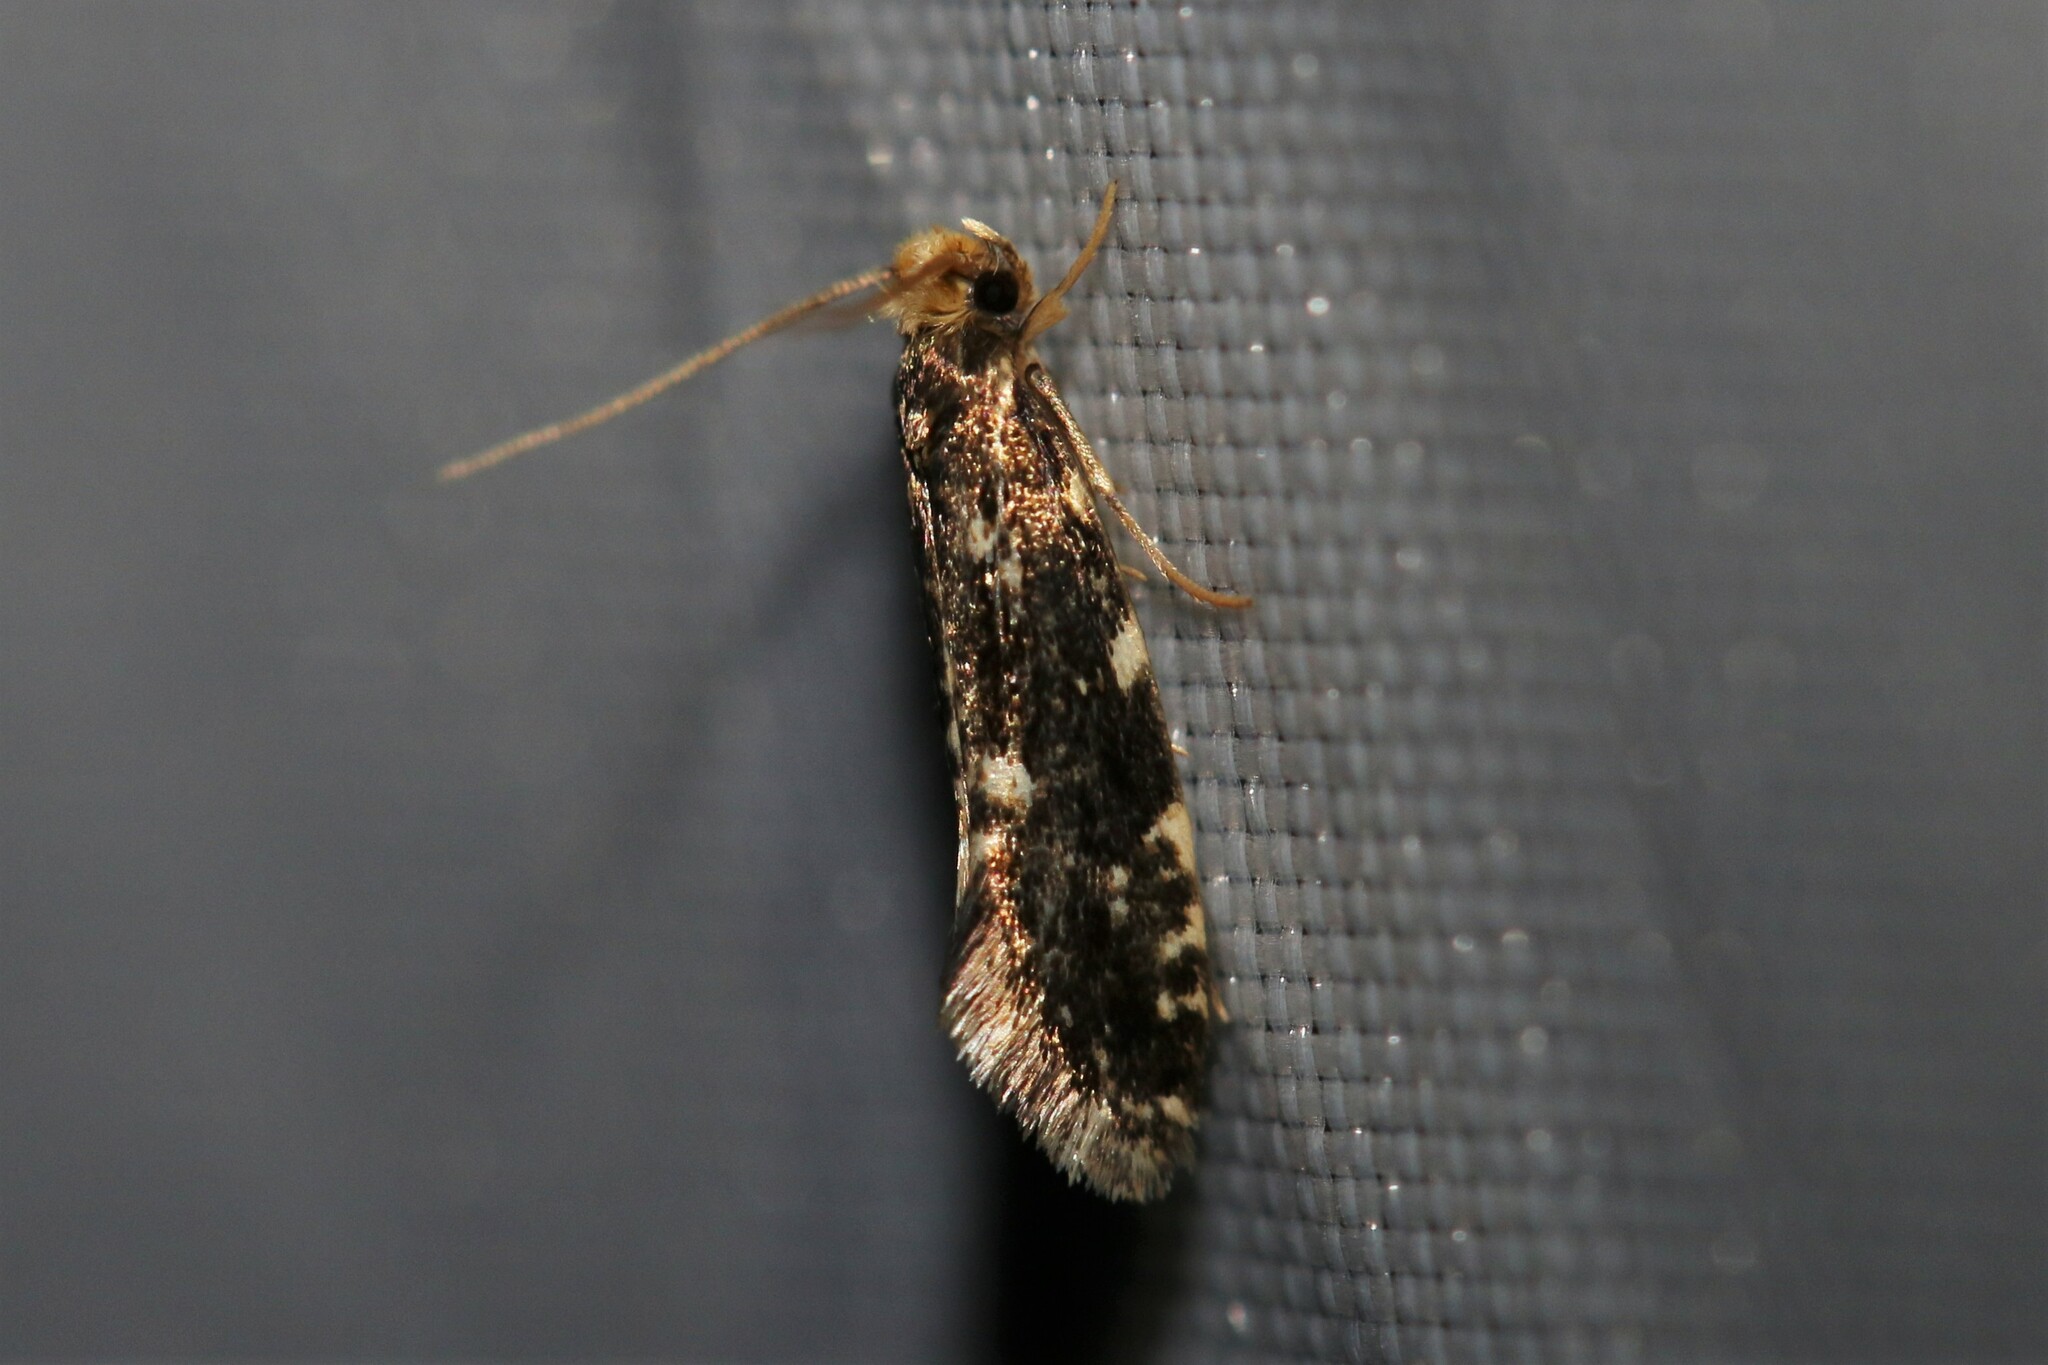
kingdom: Animalia
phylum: Arthropoda
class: Insecta
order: Lepidoptera
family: Tineidae
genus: Nemapogon
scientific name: Nemapogon koenigi
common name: White-speckled clothes
